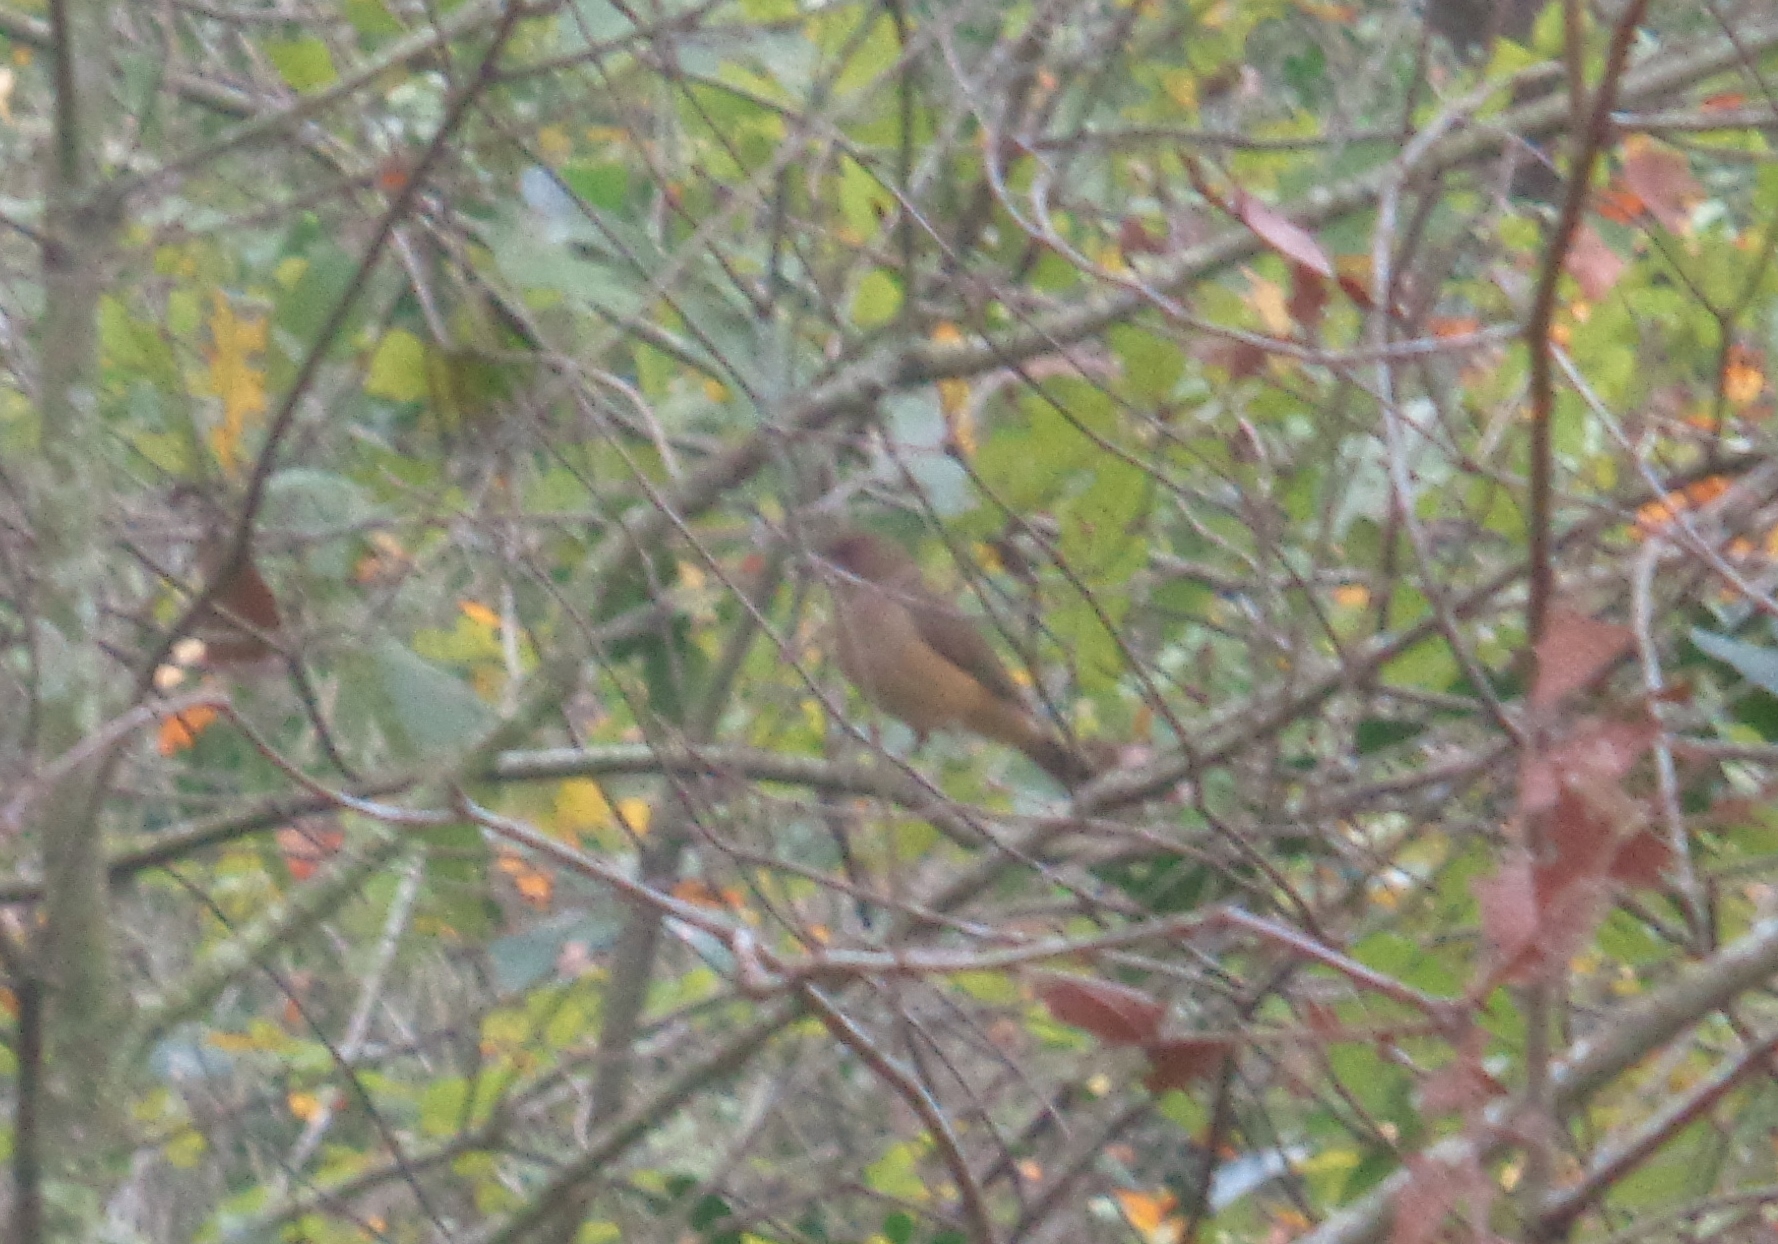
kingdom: Animalia
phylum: Chordata
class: Aves
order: Passeriformes
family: Turdidae
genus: Turdus
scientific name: Turdus grayi
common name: Clay-colored thrush
